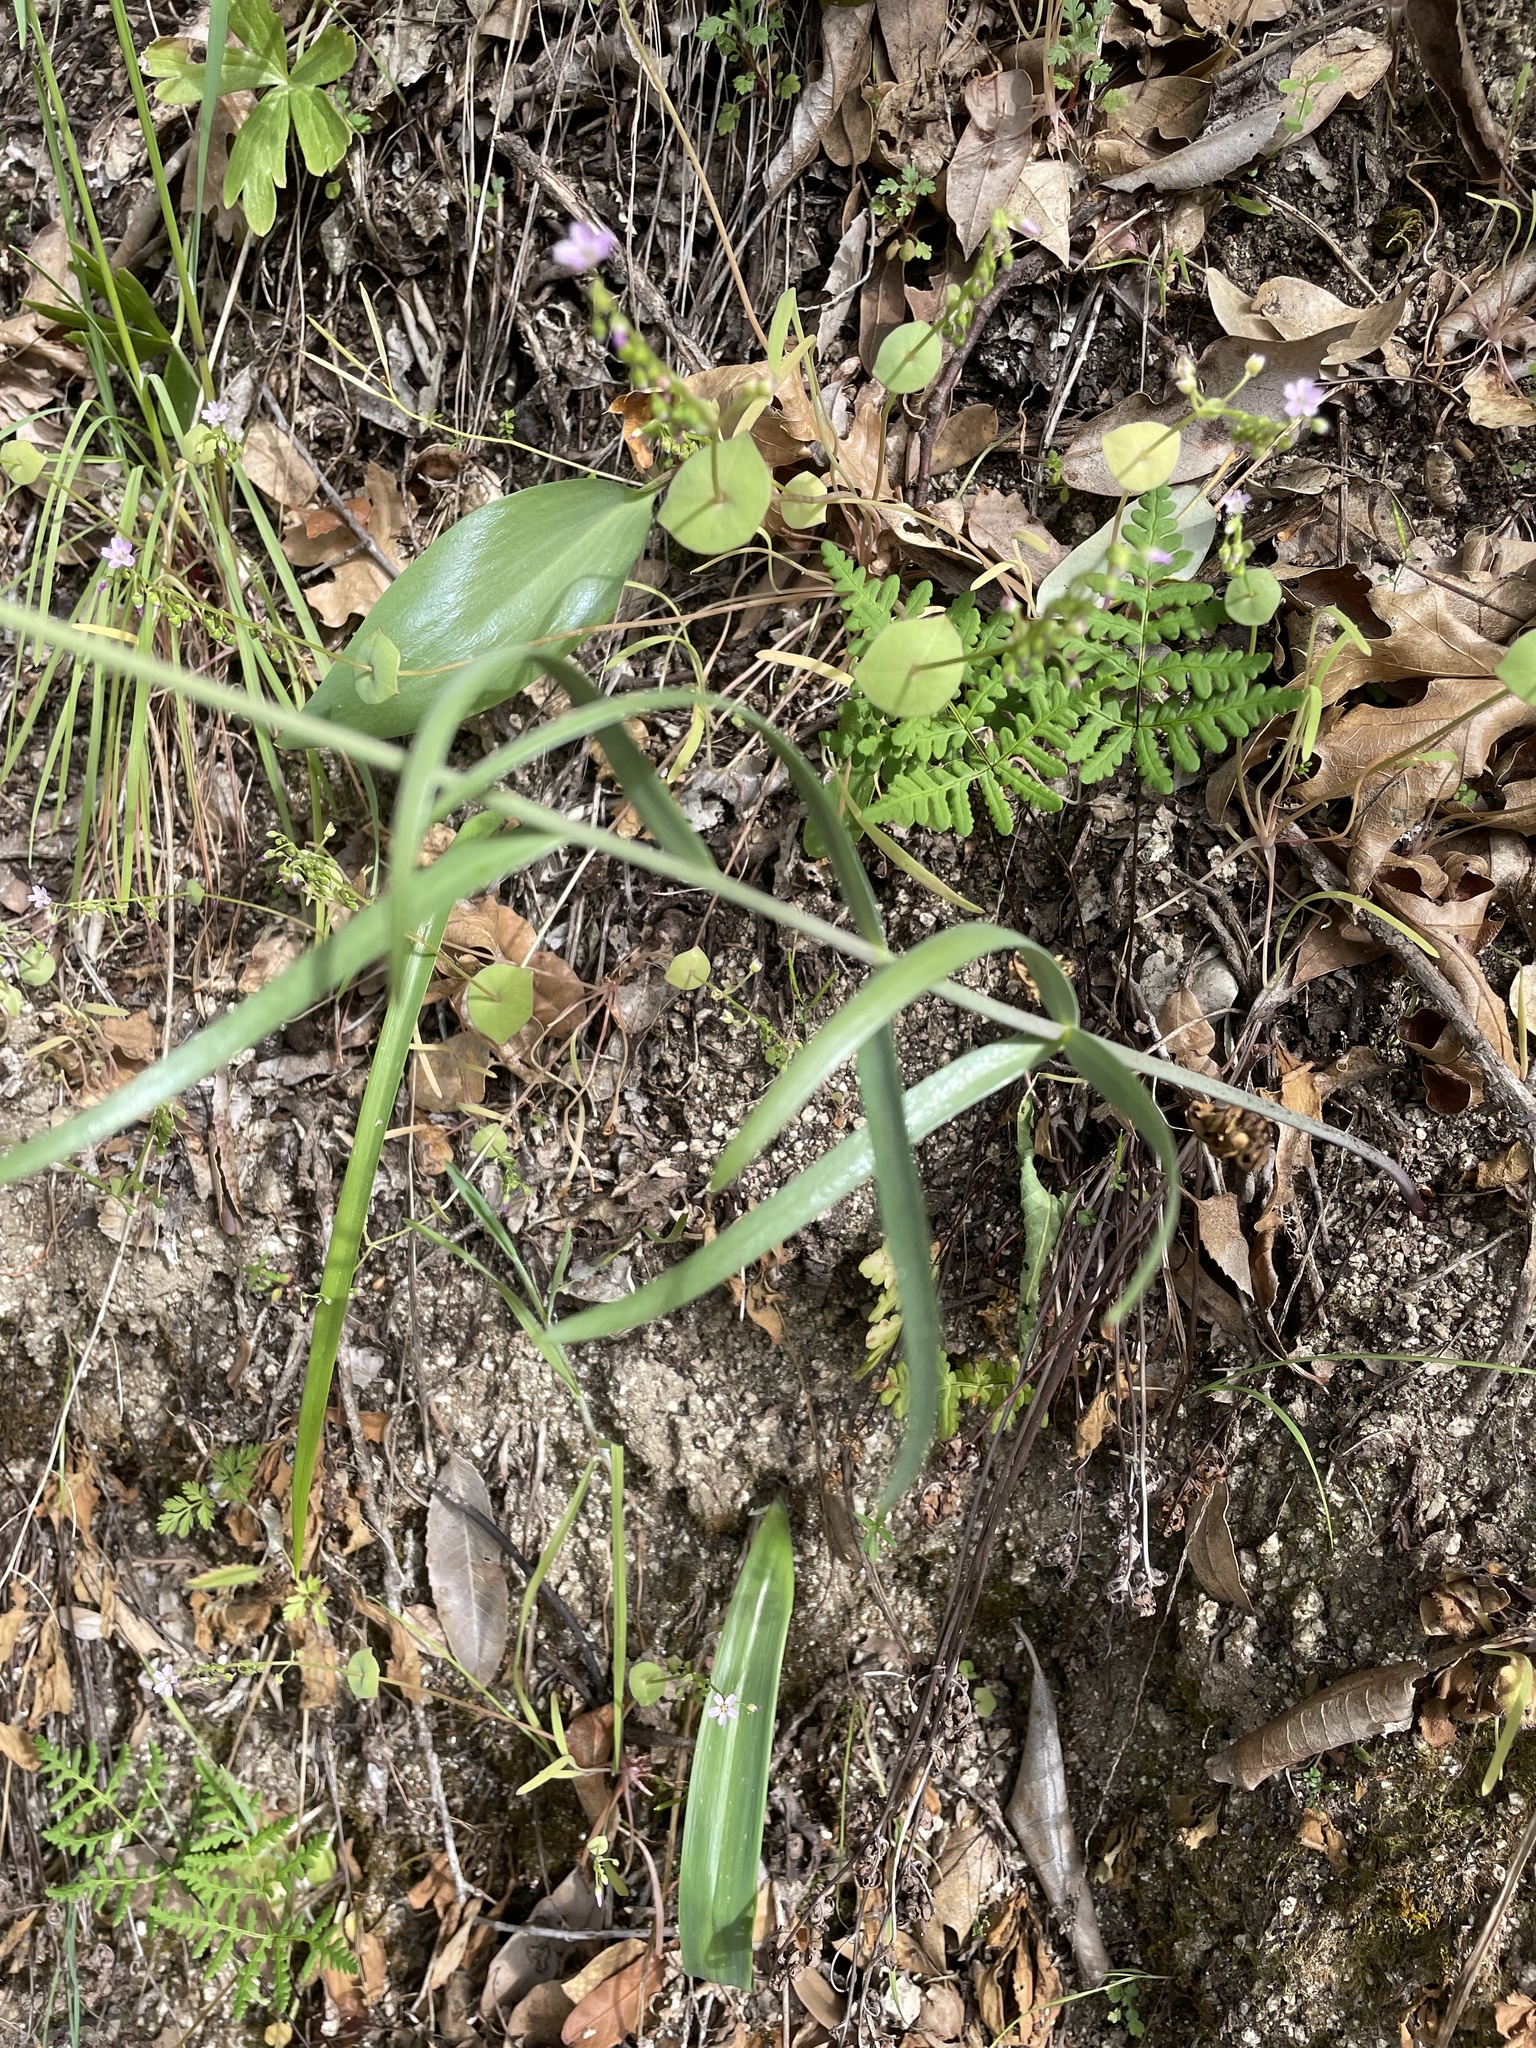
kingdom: Plantae
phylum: Tracheophyta
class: Liliopsida
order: Liliales
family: Liliaceae
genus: Fritillaria
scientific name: Fritillaria micrantha
